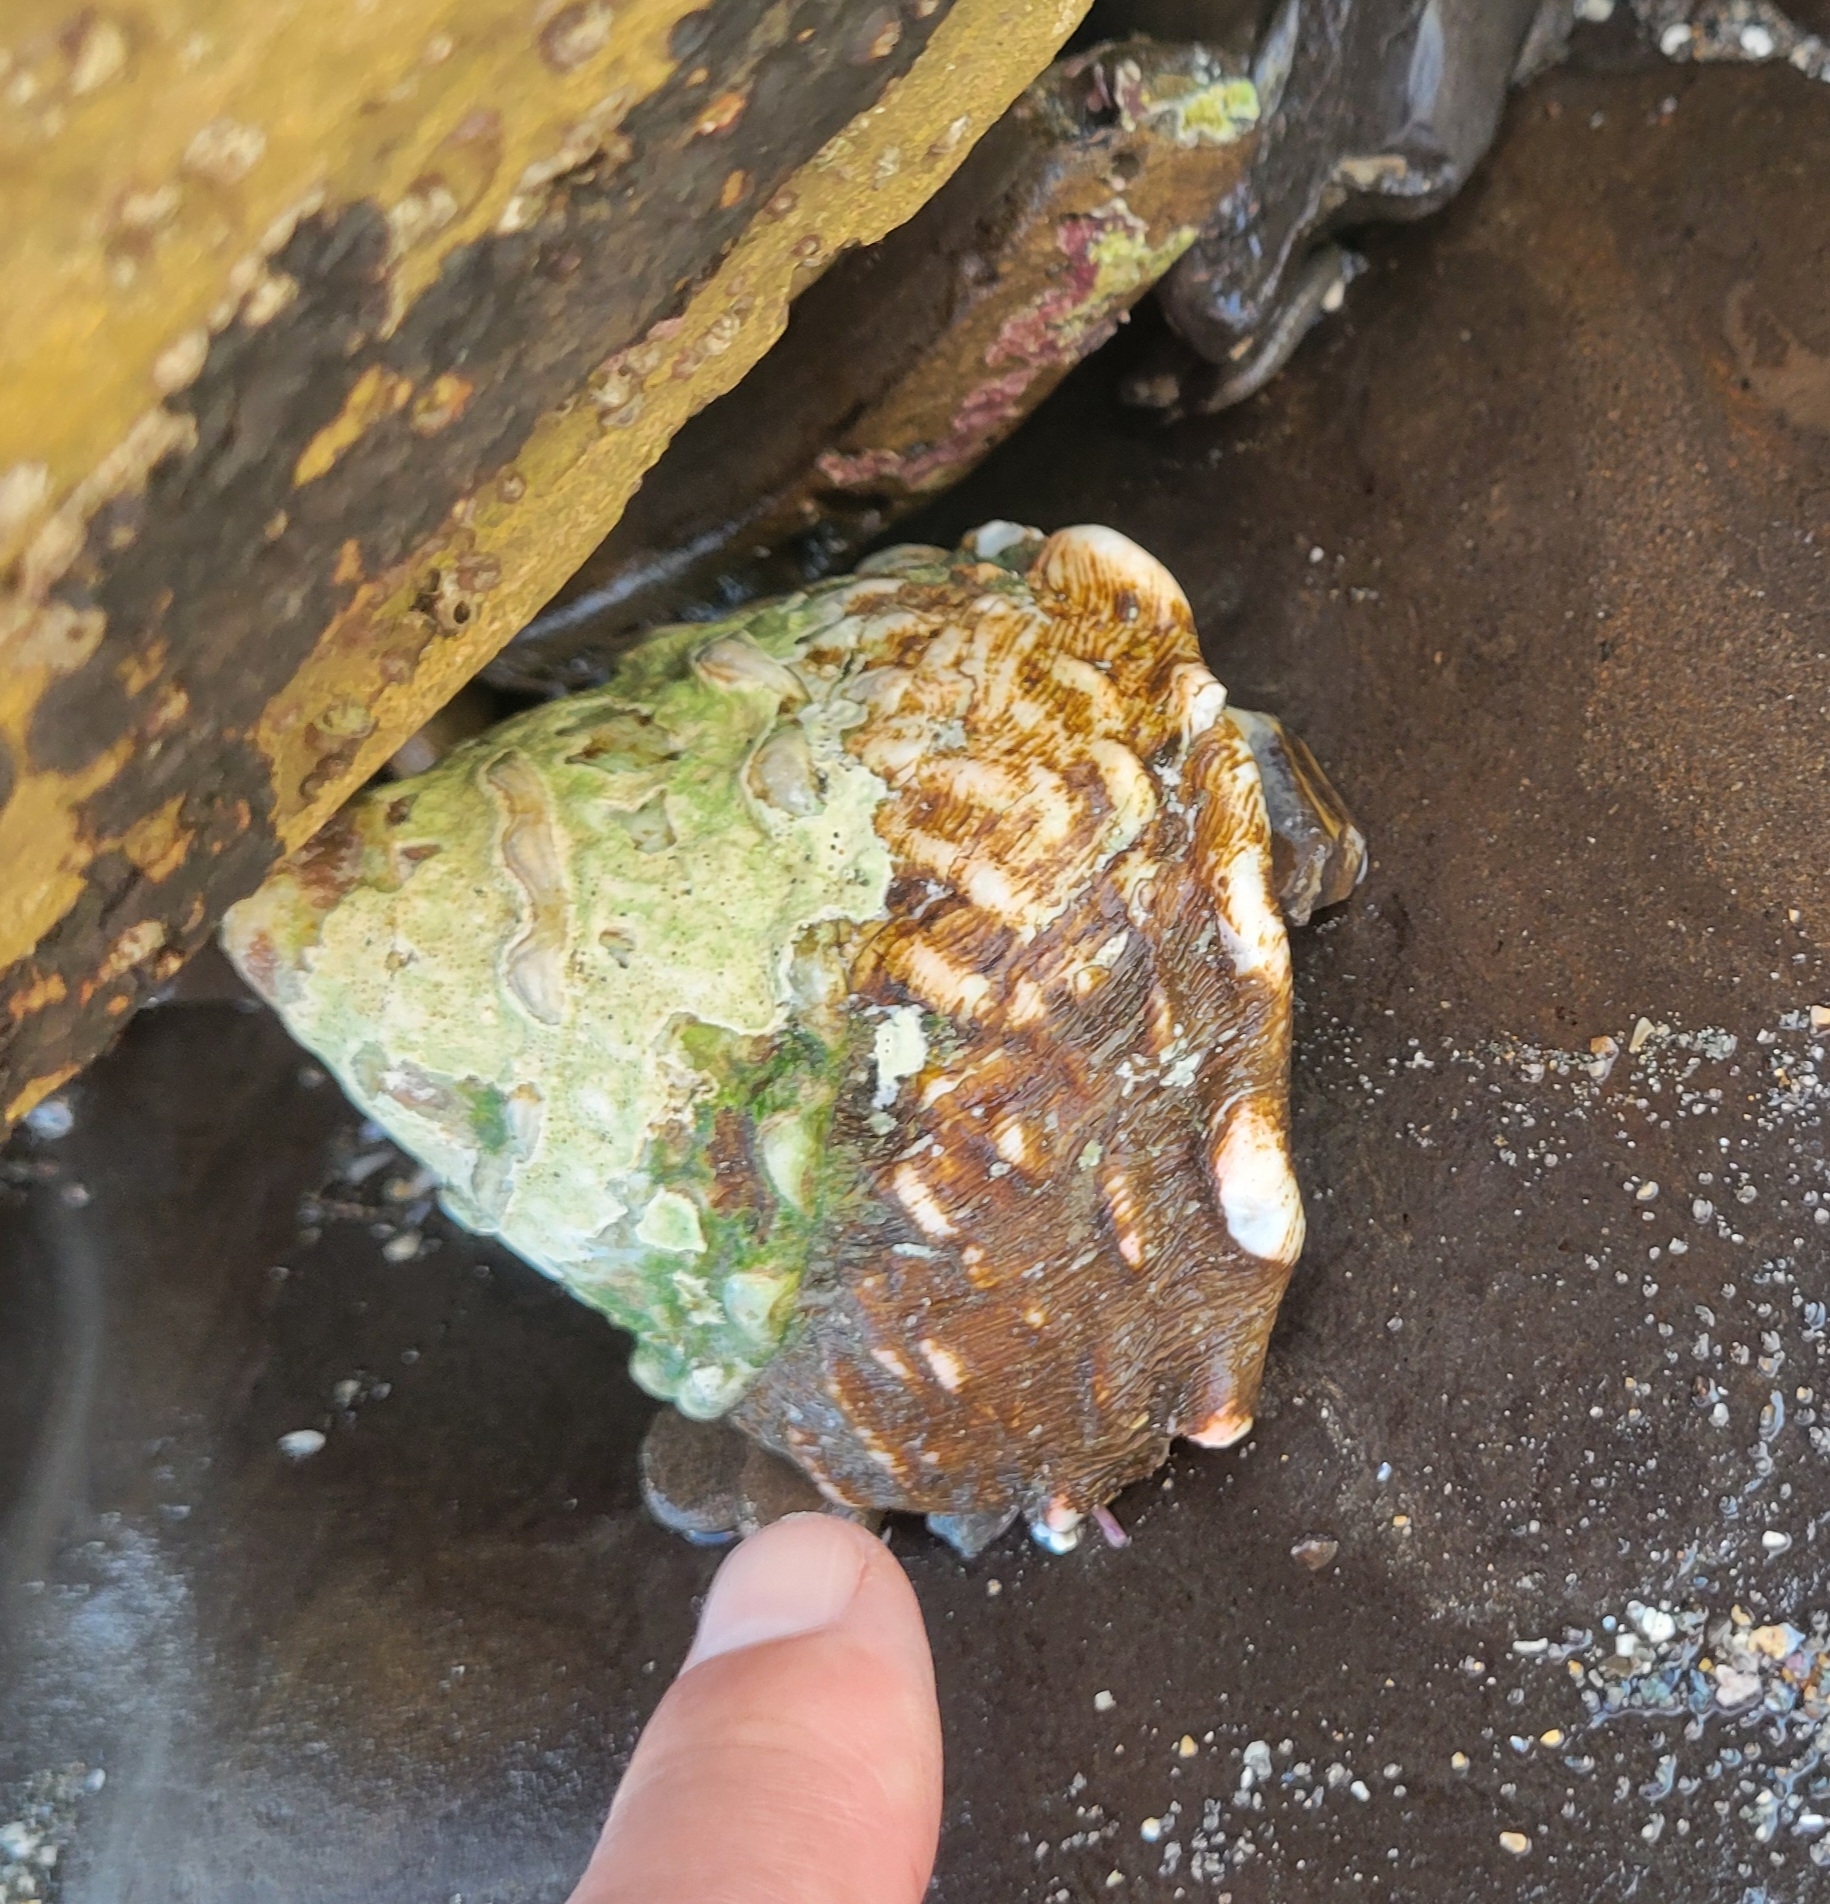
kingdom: Animalia
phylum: Mollusca
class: Gastropoda
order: Trochida
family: Turbinidae
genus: Megastraea
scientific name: Megastraea undosa
